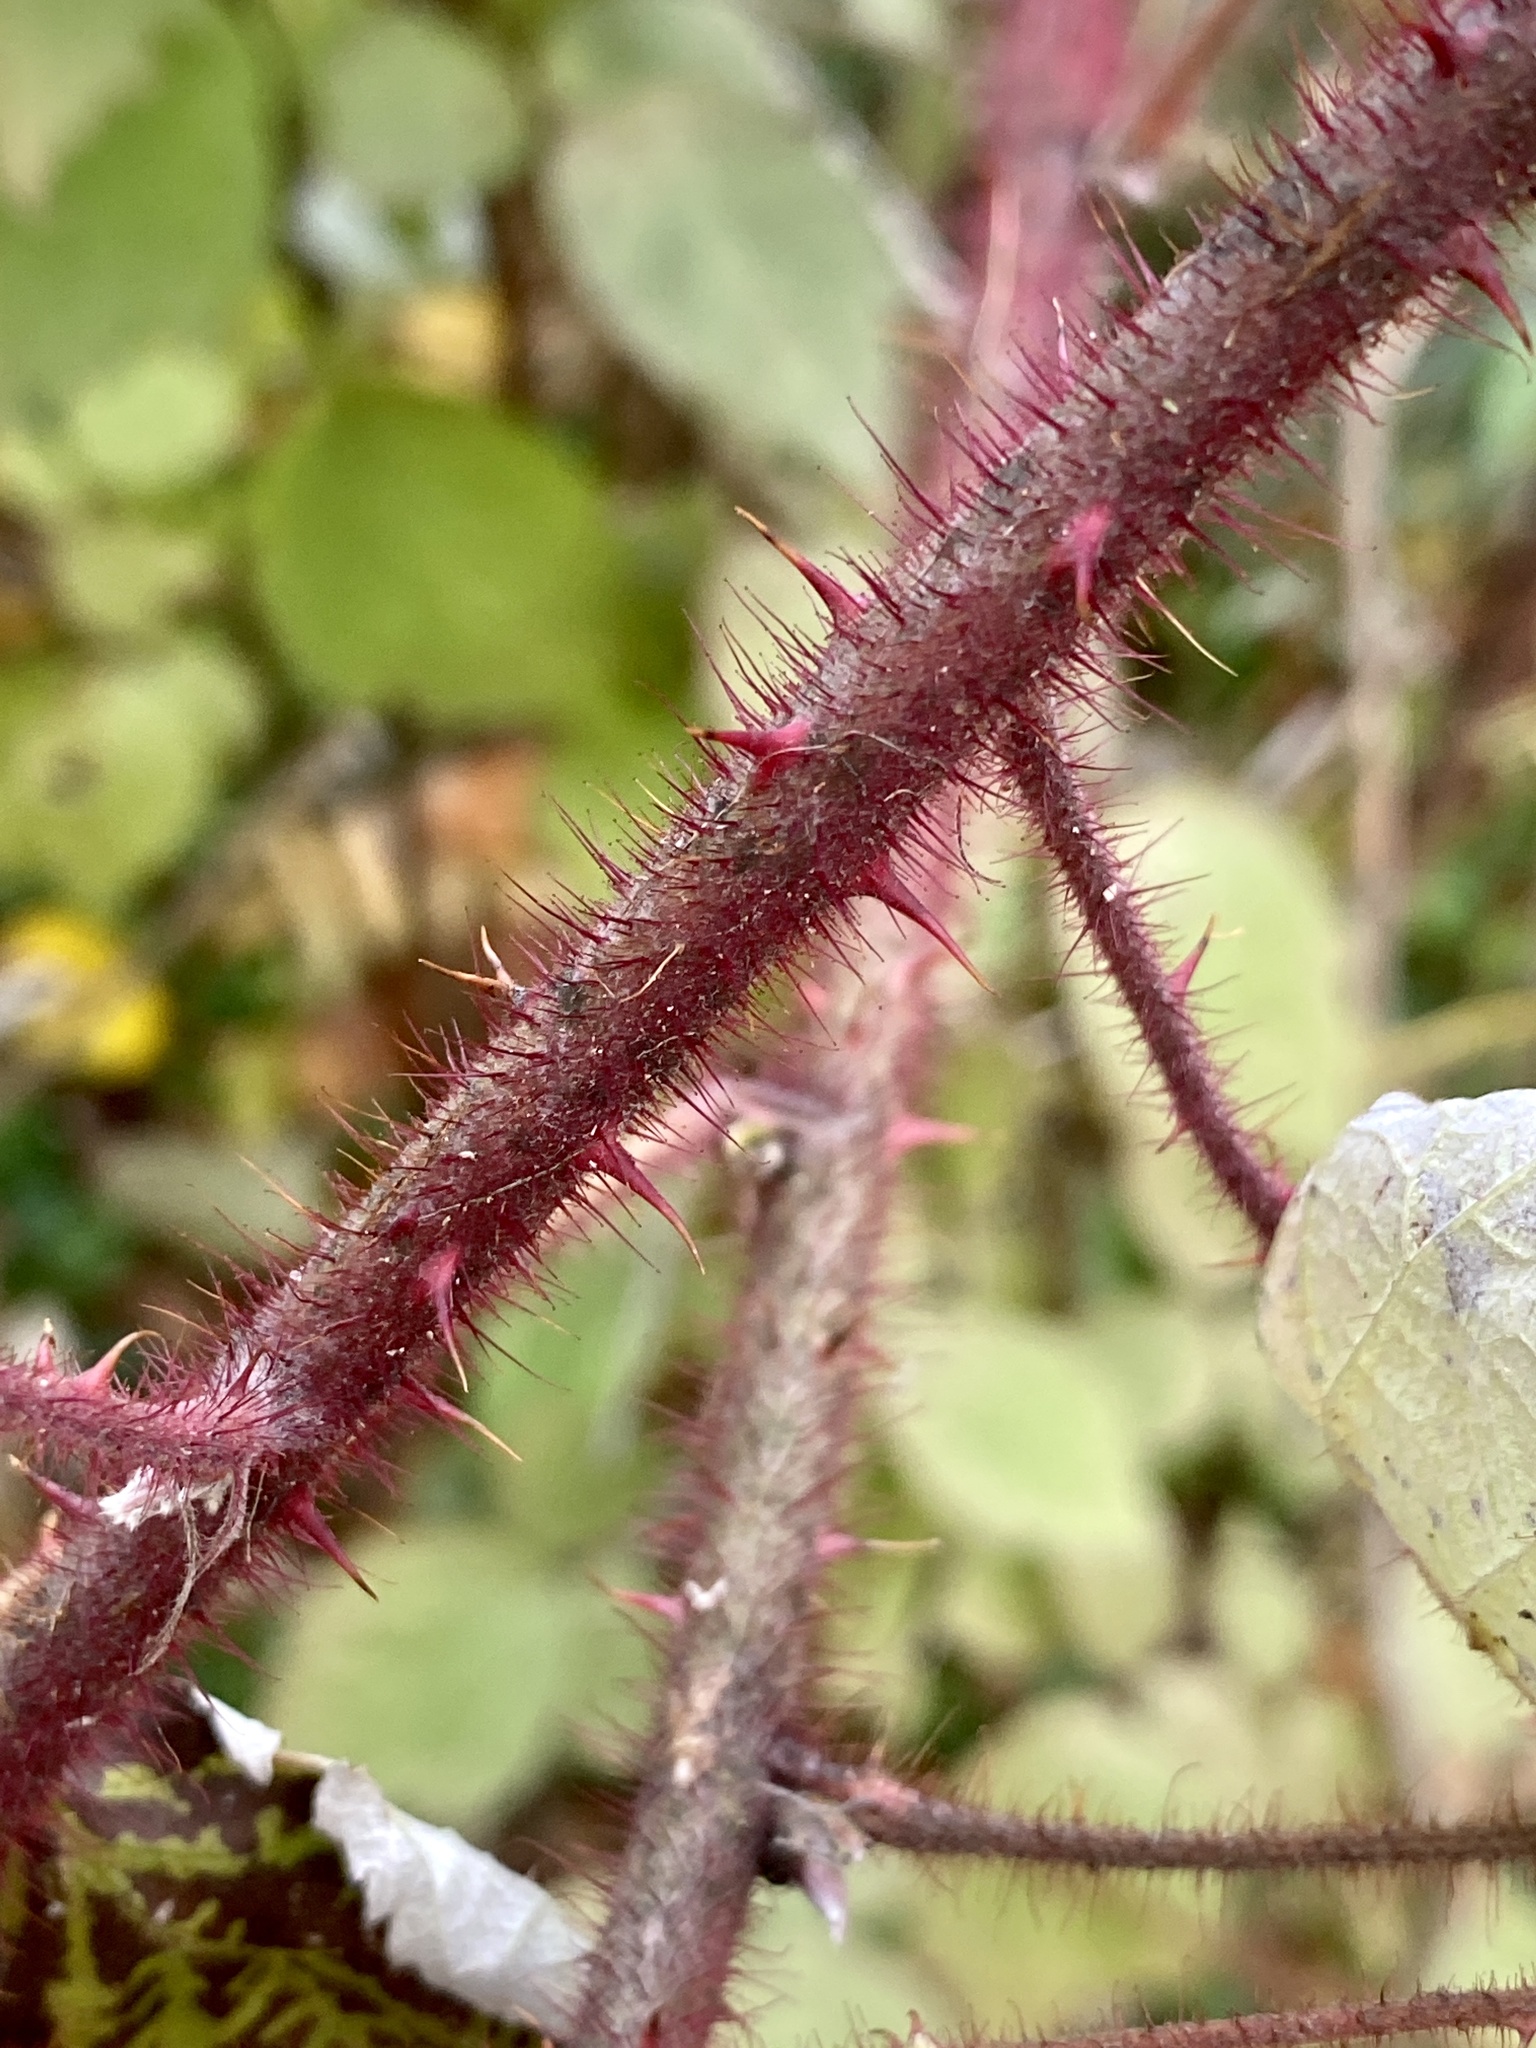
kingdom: Plantae
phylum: Tracheophyta
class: Magnoliopsida
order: Rosales
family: Rosaceae
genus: Rubus
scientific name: Rubus phoenicolasius
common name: Japanese wineberry
